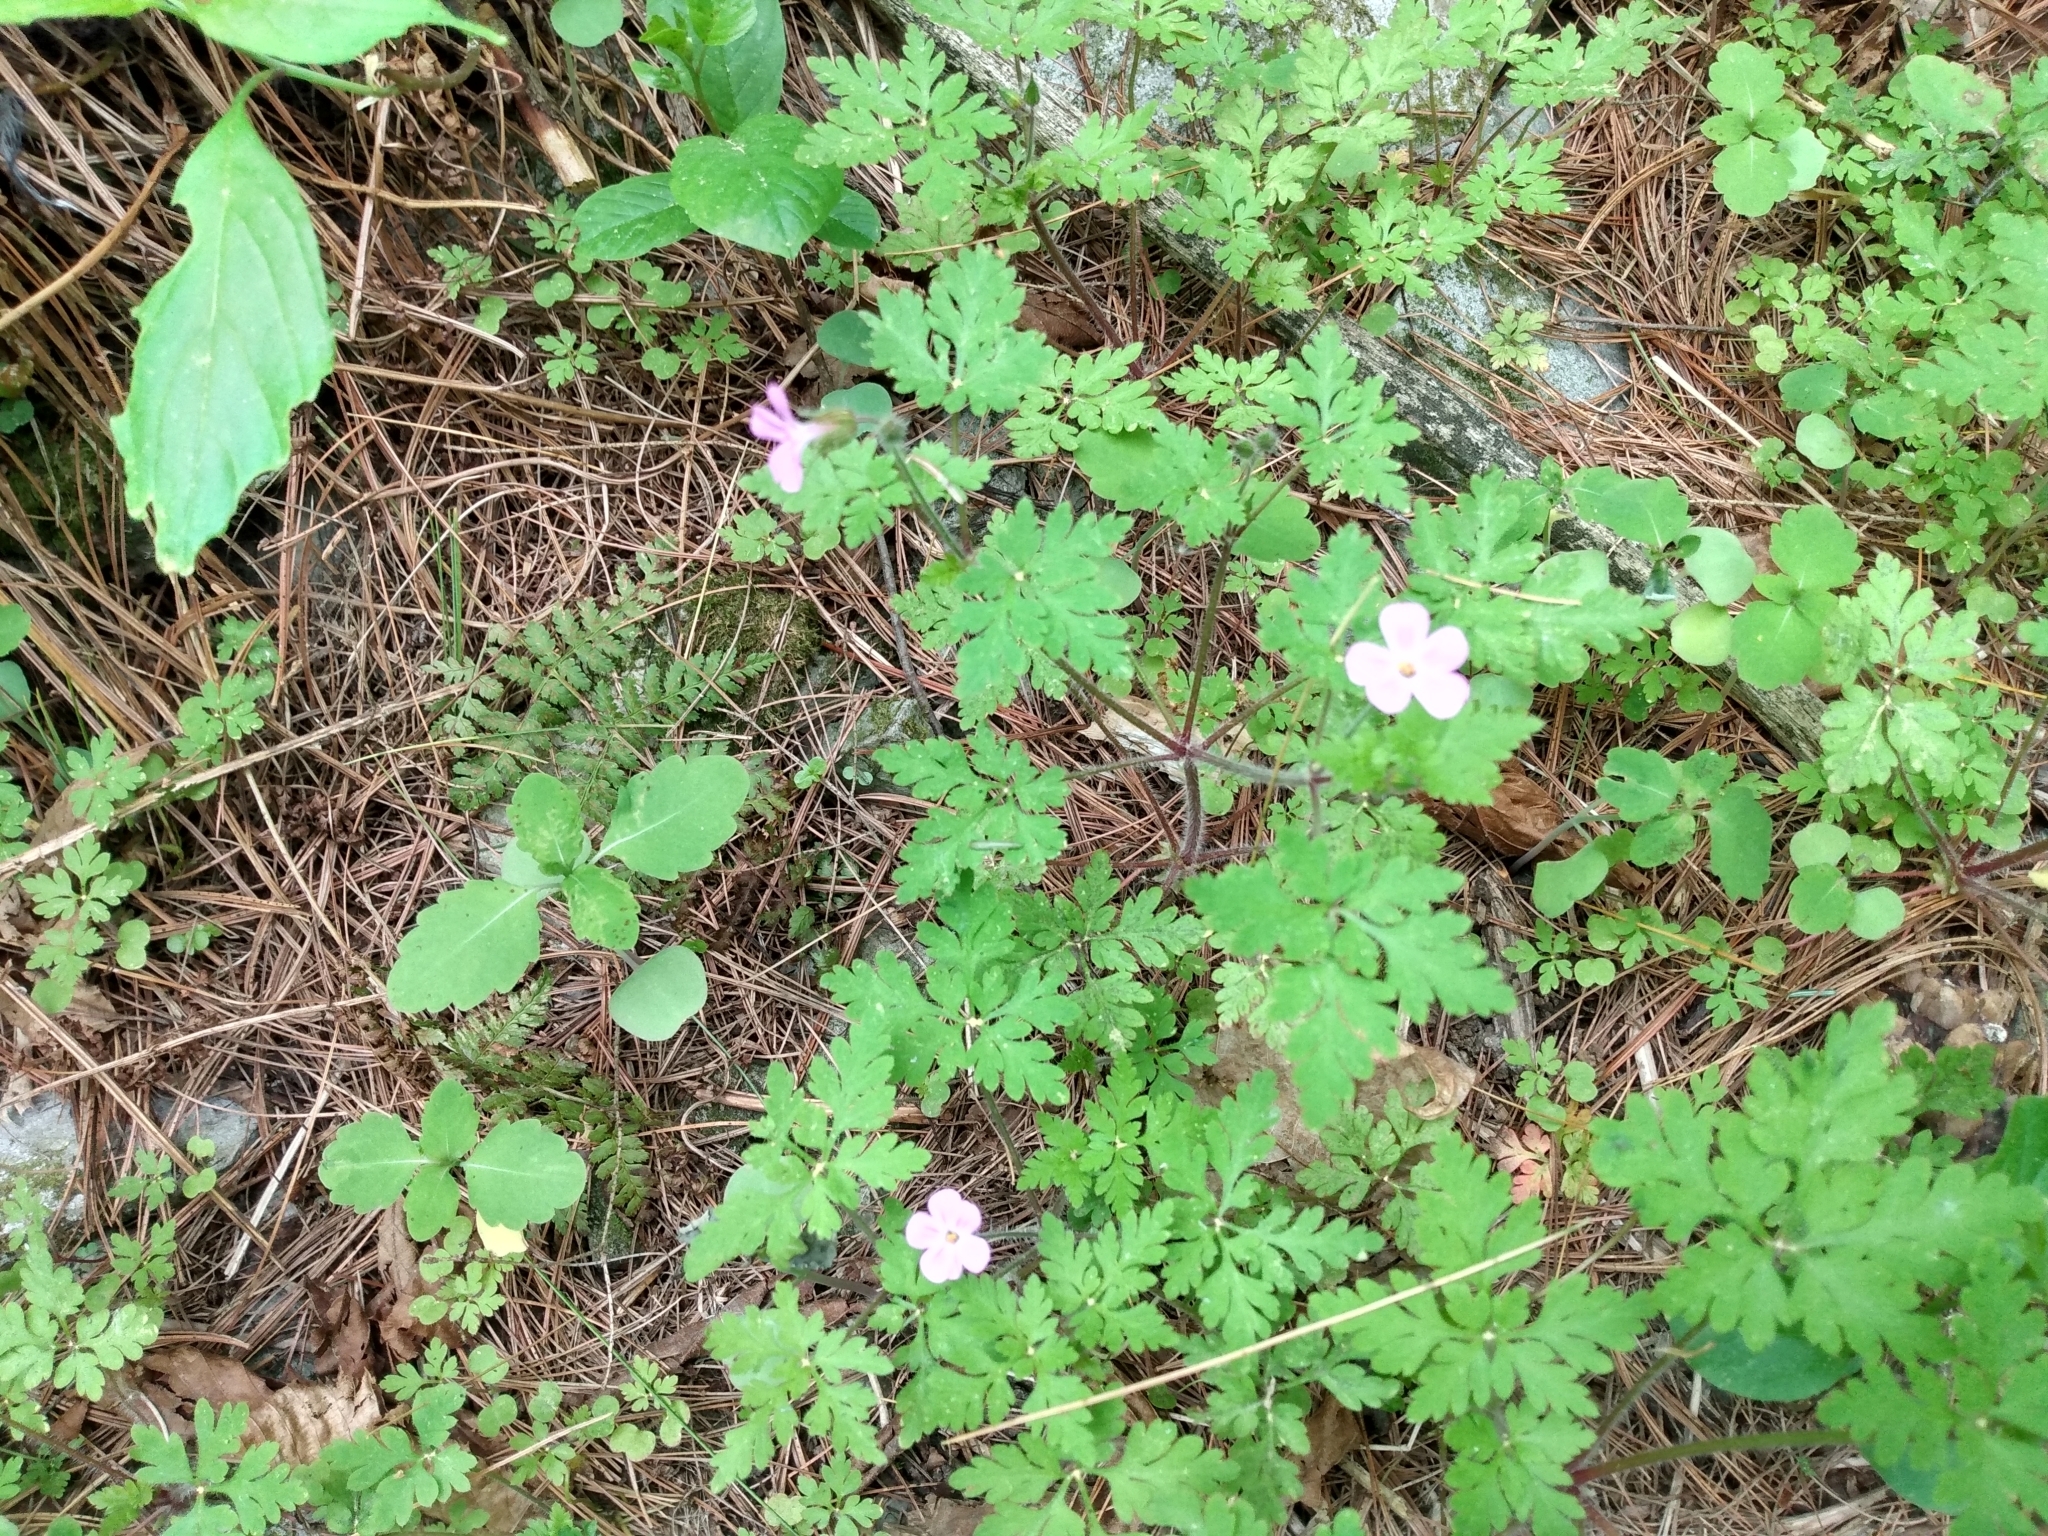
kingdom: Plantae
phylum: Tracheophyta
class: Magnoliopsida
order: Geraniales
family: Geraniaceae
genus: Geranium
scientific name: Geranium robertianum
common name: Herb-robert
